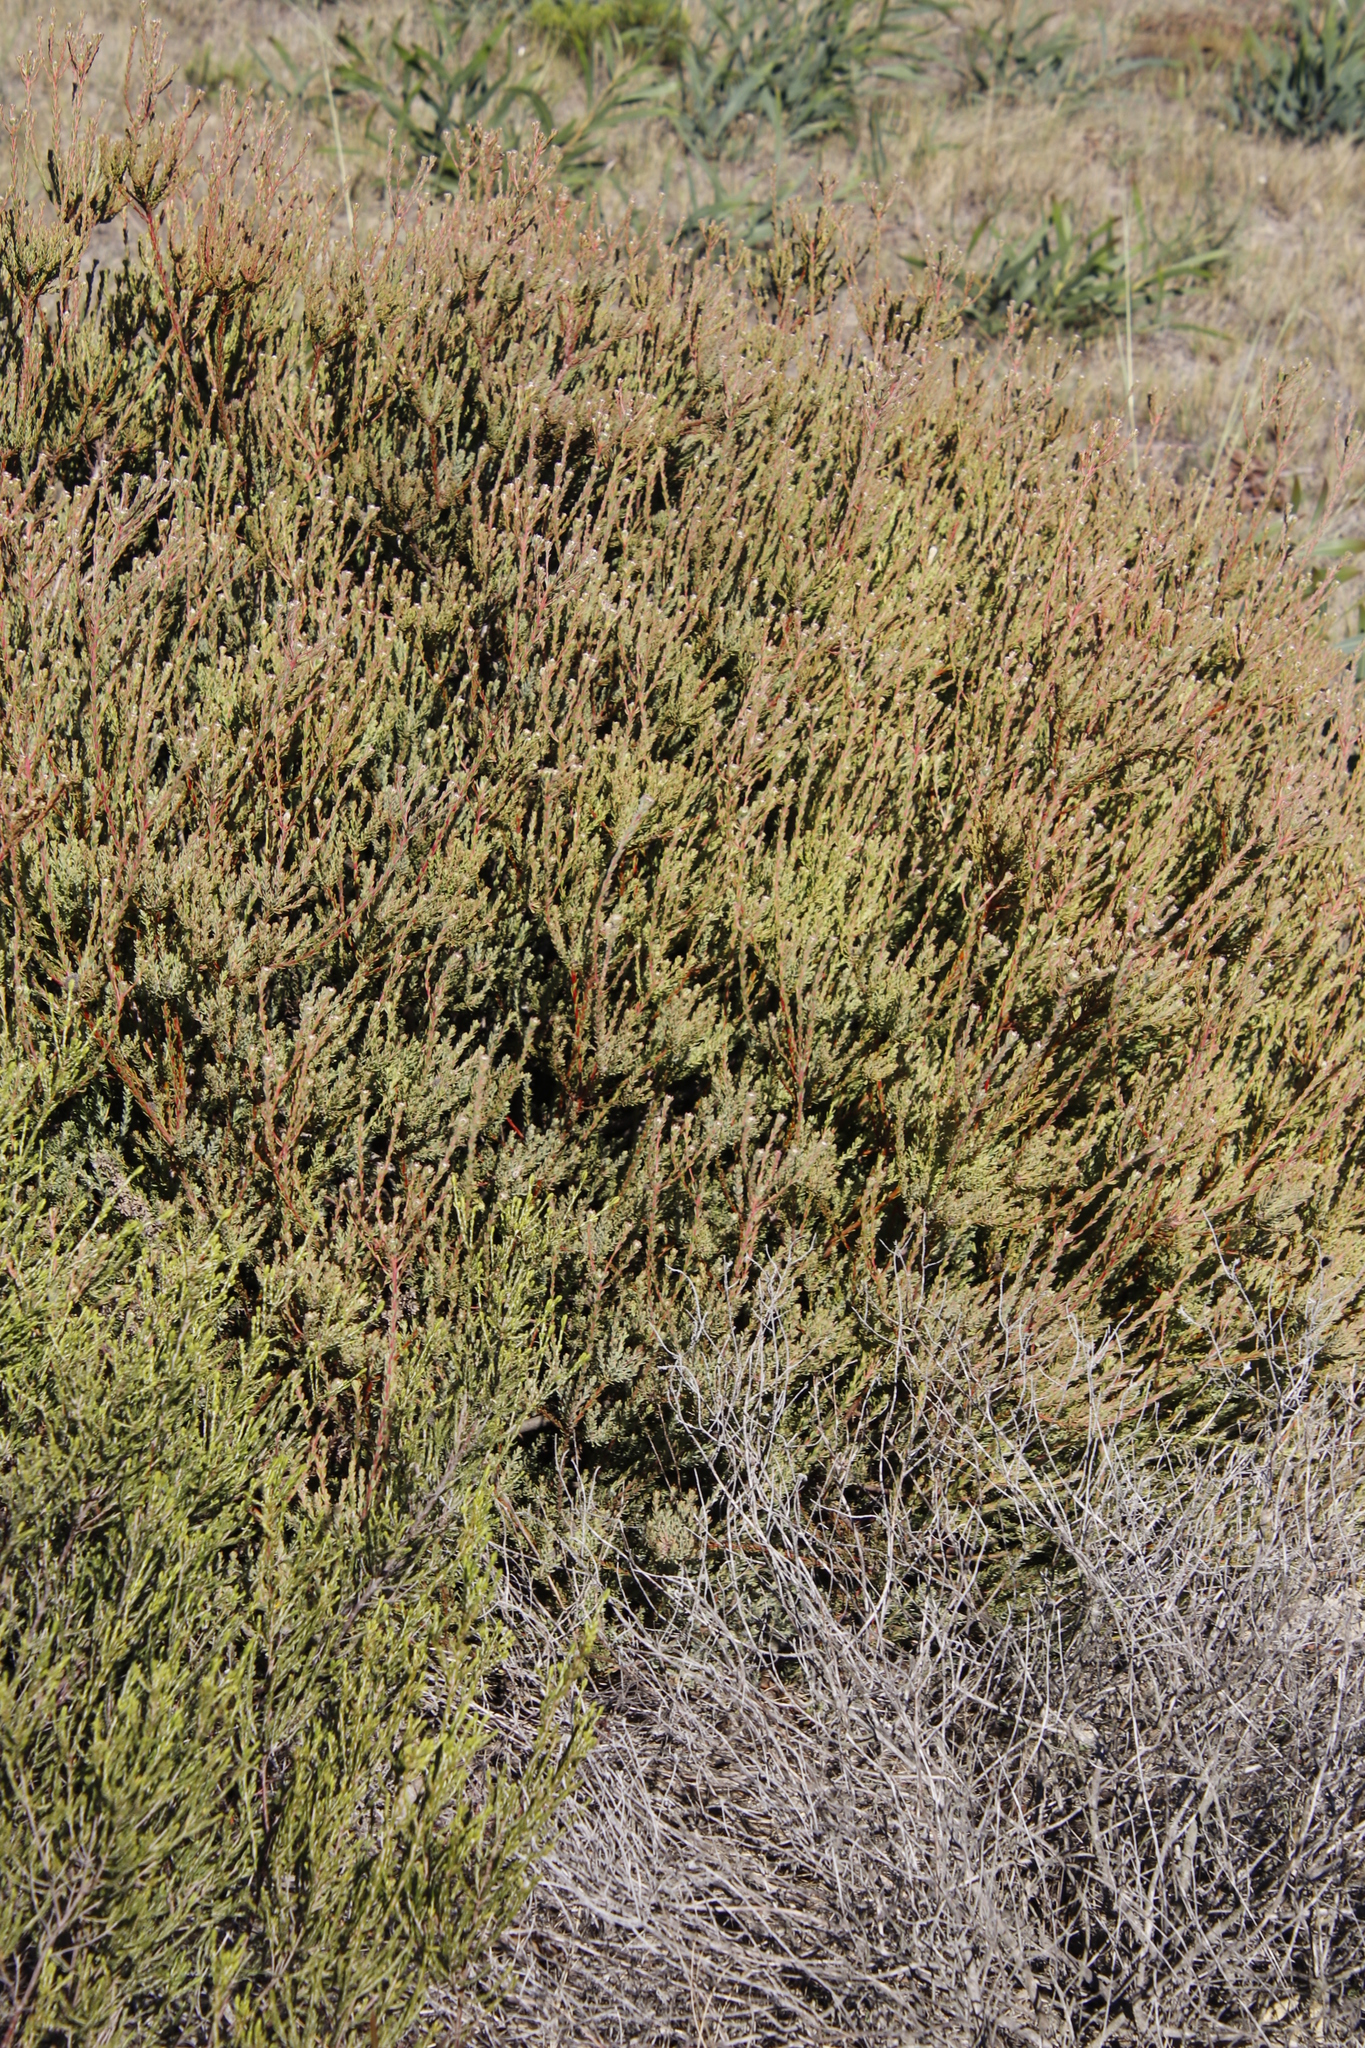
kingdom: Plantae
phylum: Tracheophyta
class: Magnoliopsida
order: Proteales
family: Proteaceae
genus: Leucadendron
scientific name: Leucadendron levisanus
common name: Cape flats conebush
